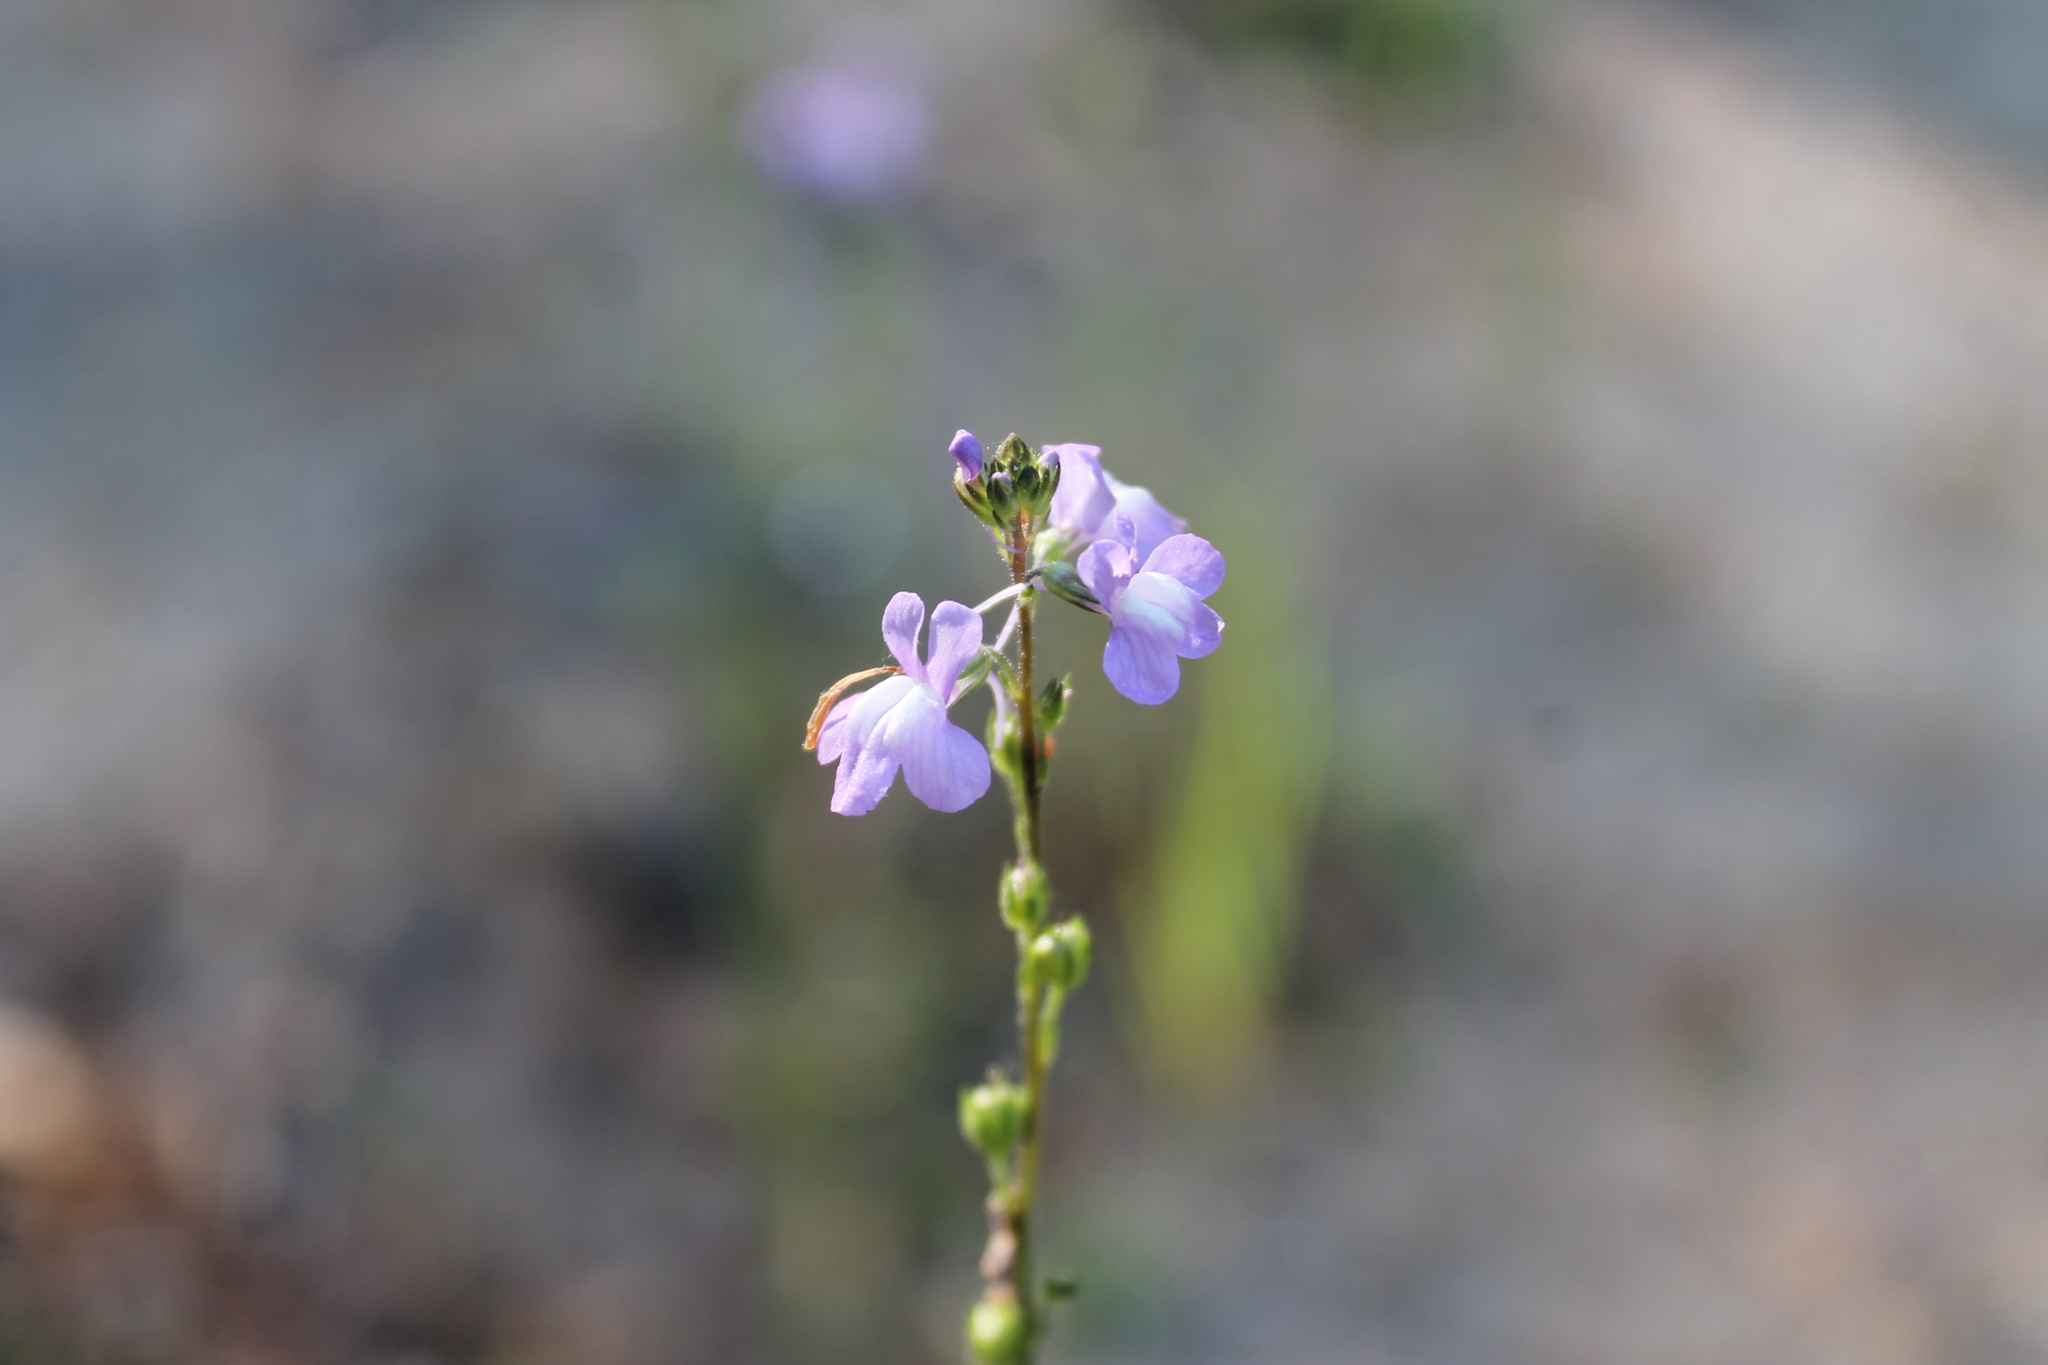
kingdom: Plantae
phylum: Tracheophyta
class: Magnoliopsida
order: Lamiales
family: Plantaginaceae
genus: Nuttallanthus
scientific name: Nuttallanthus canadensis
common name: Blue toadflax
